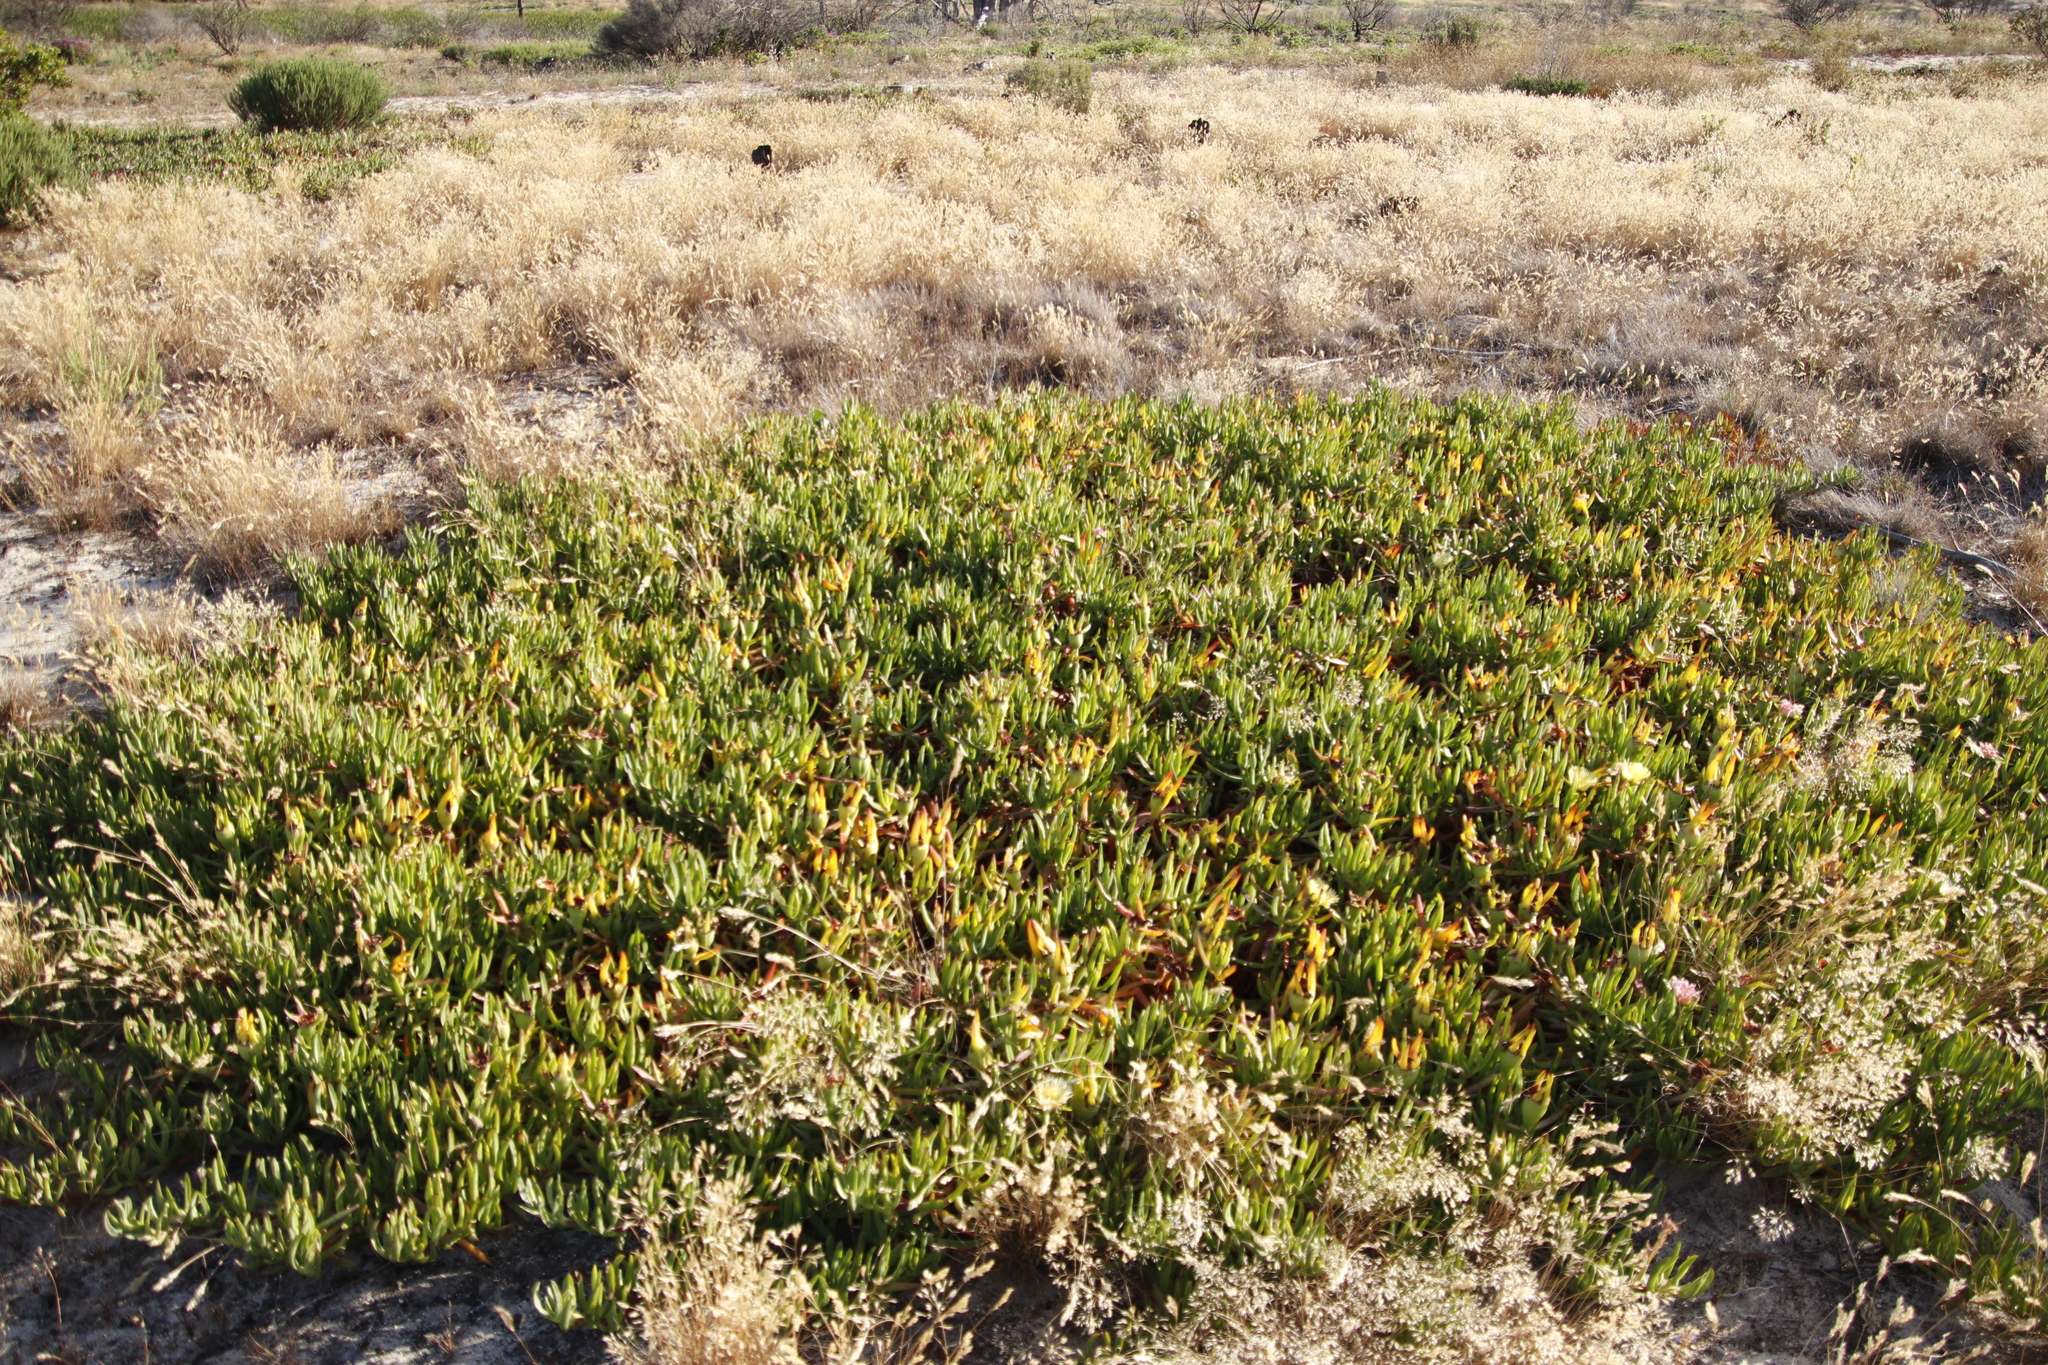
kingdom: Plantae
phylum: Tracheophyta
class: Magnoliopsida
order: Caryophyllales
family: Aizoaceae
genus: Carpobrotus
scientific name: Carpobrotus edulis
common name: Hottentot-fig
